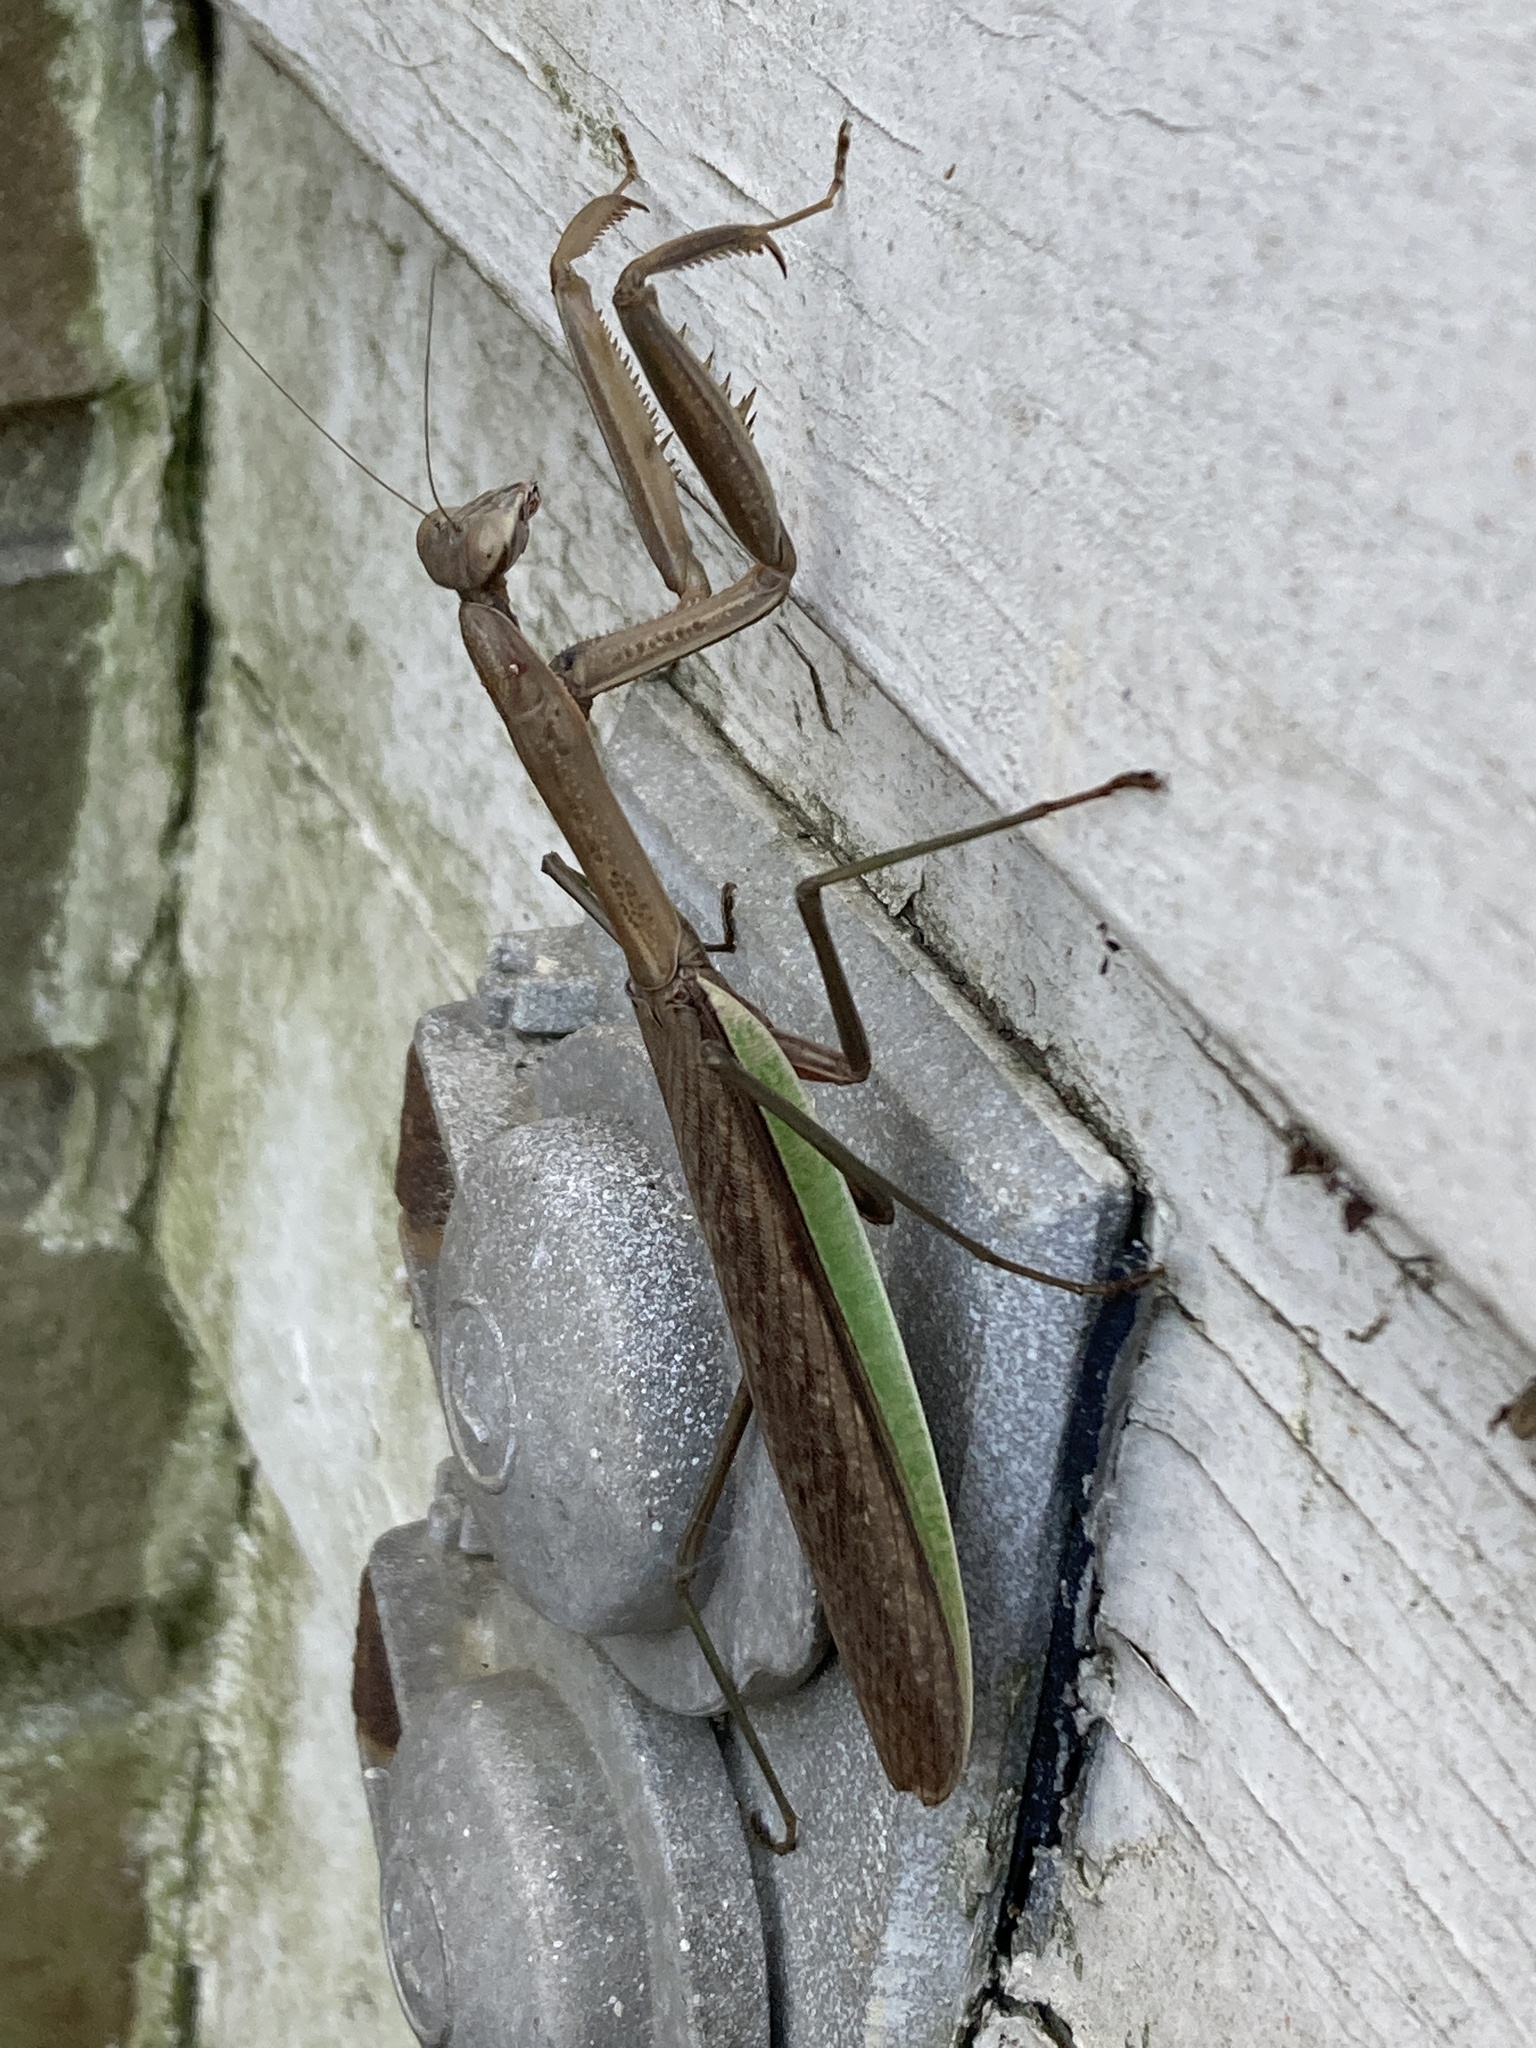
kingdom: Animalia
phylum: Arthropoda
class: Insecta
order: Mantodea
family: Mantidae
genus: Tenodera
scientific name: Tenodera sinensis
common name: Chinese mantis
